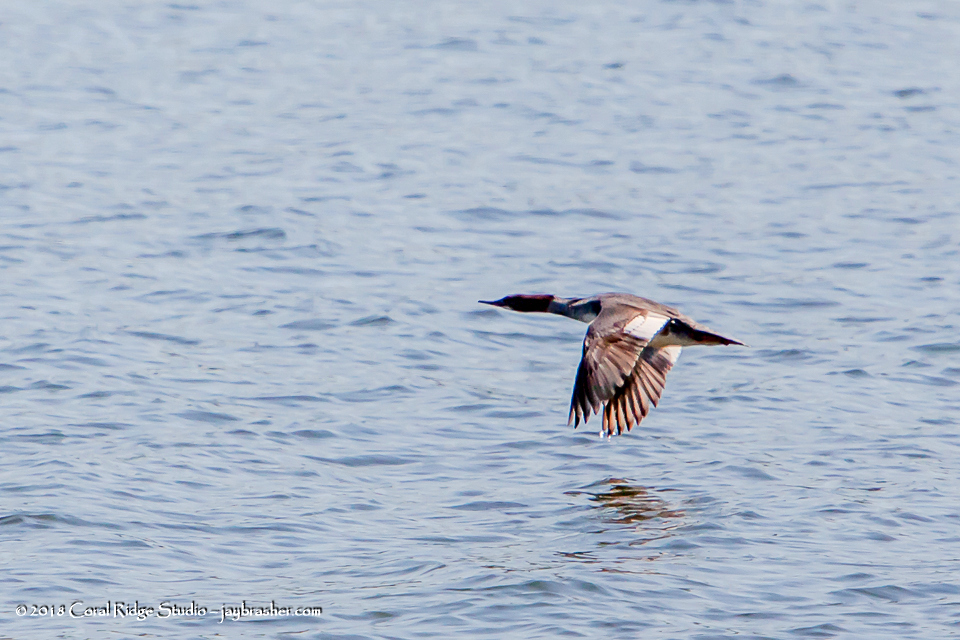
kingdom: Animalia
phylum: Chordata
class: Aves
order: Anseriformes
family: Anatidae
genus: Mergus
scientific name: Mergus serrator
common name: Red-breasted merganser
